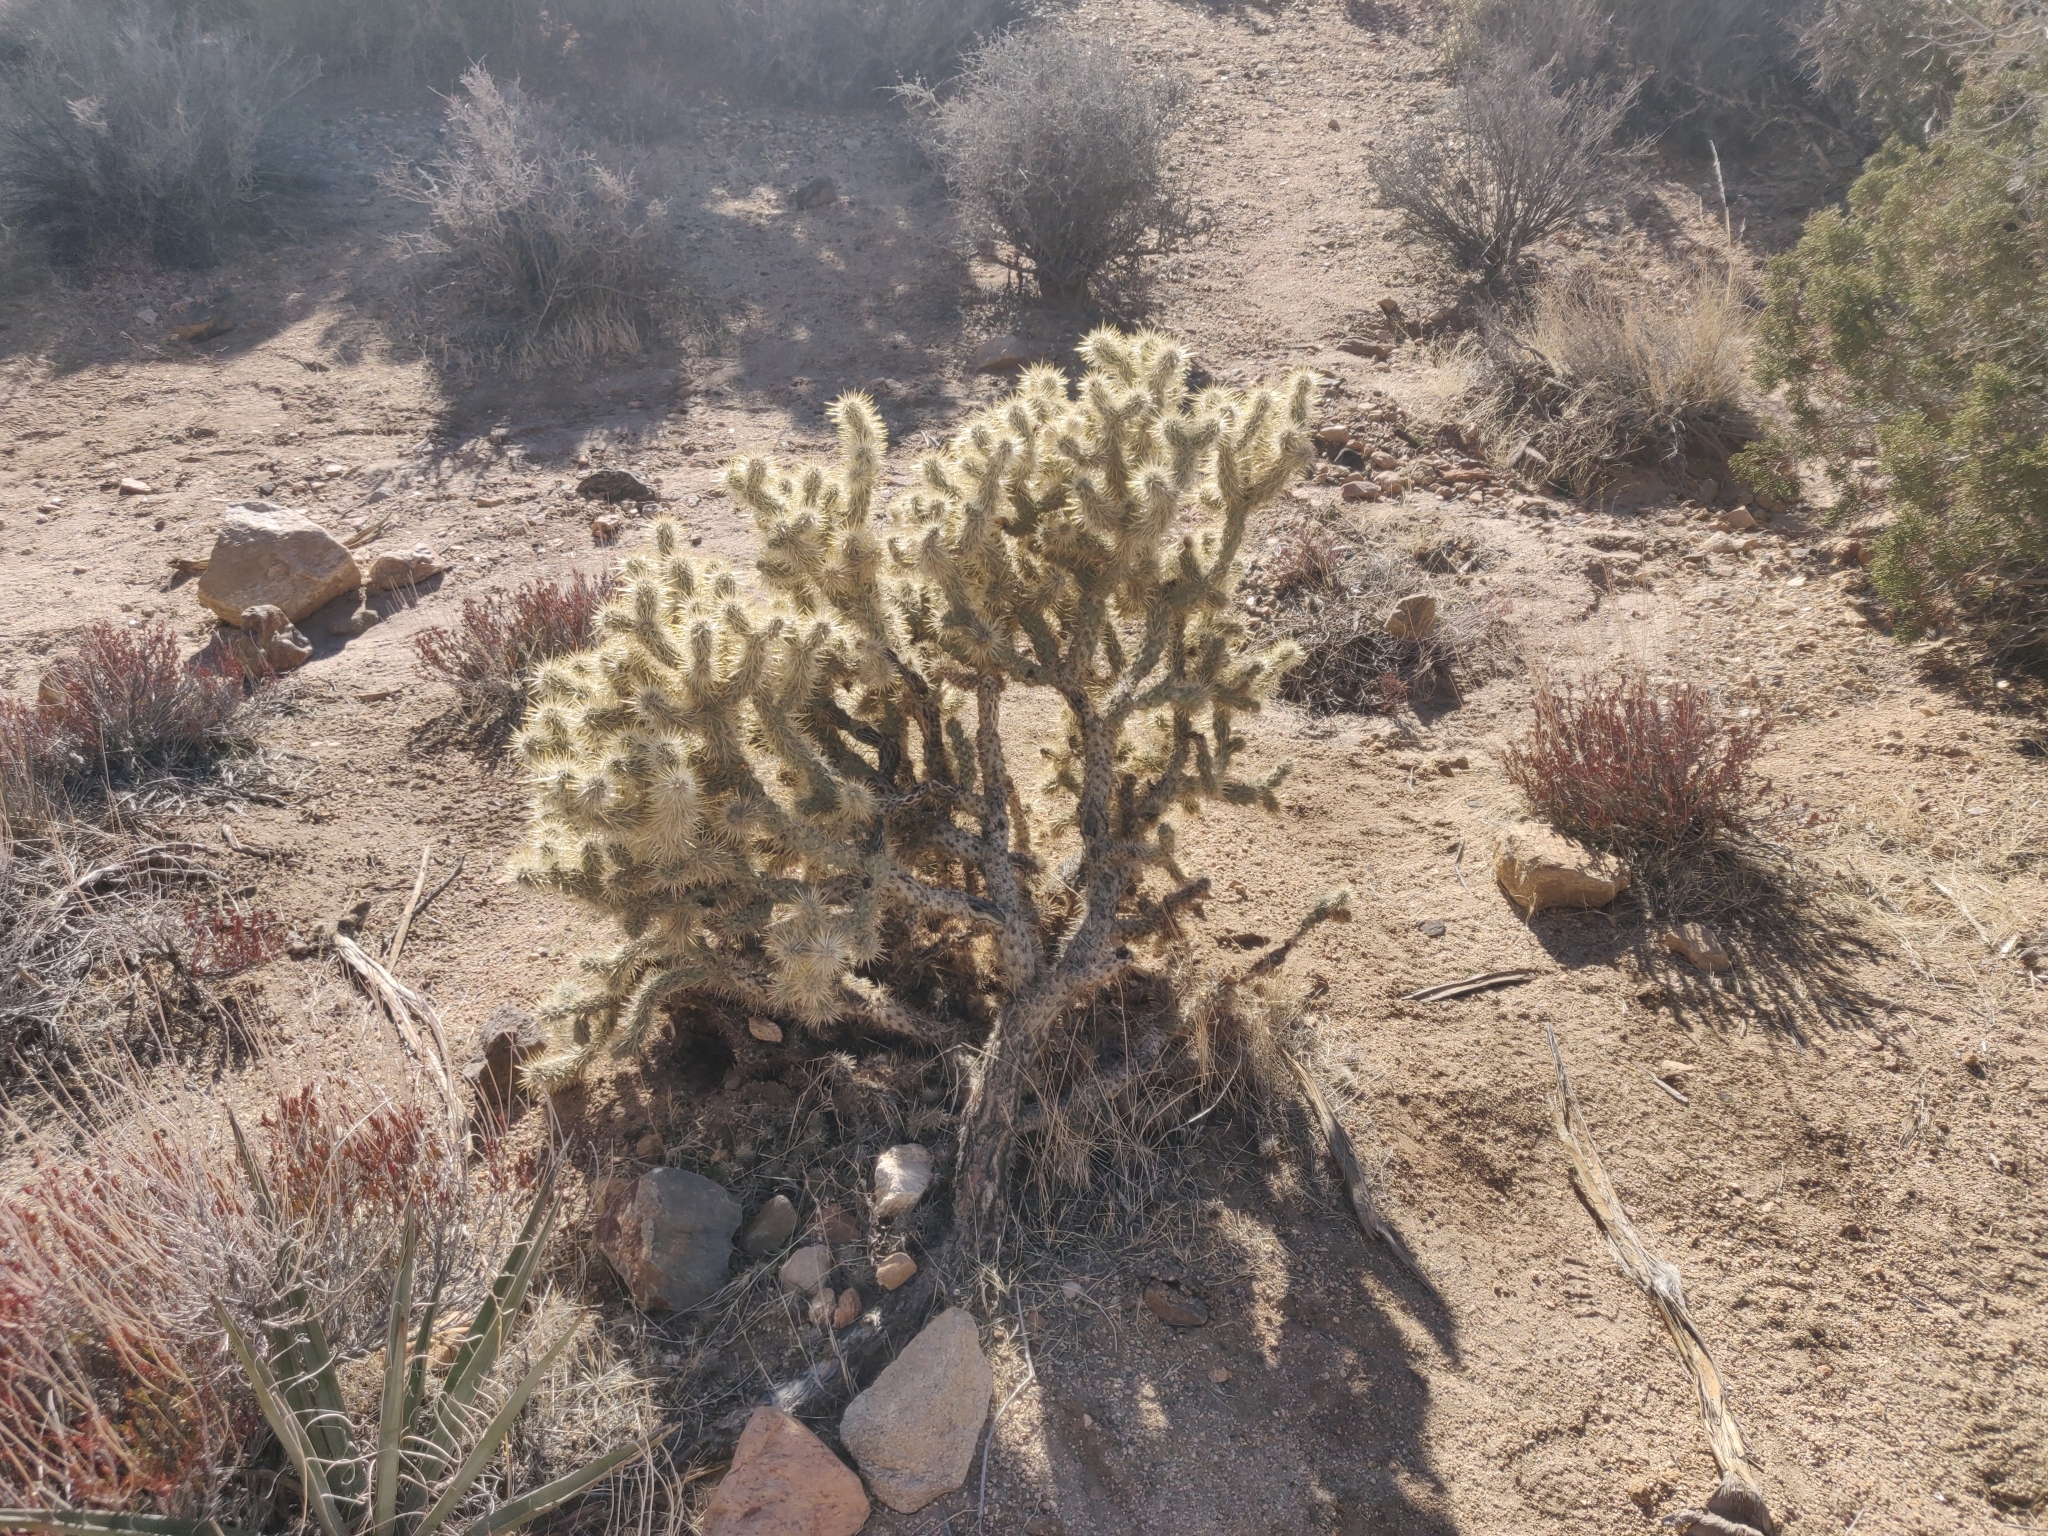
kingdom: Plantae
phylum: Tracheophyta
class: Magnoliopsida
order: Caryophyllales
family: Cactaceae
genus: Cylindropuntia
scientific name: Cylindropuntia echinocarpa
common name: Ground cholla
